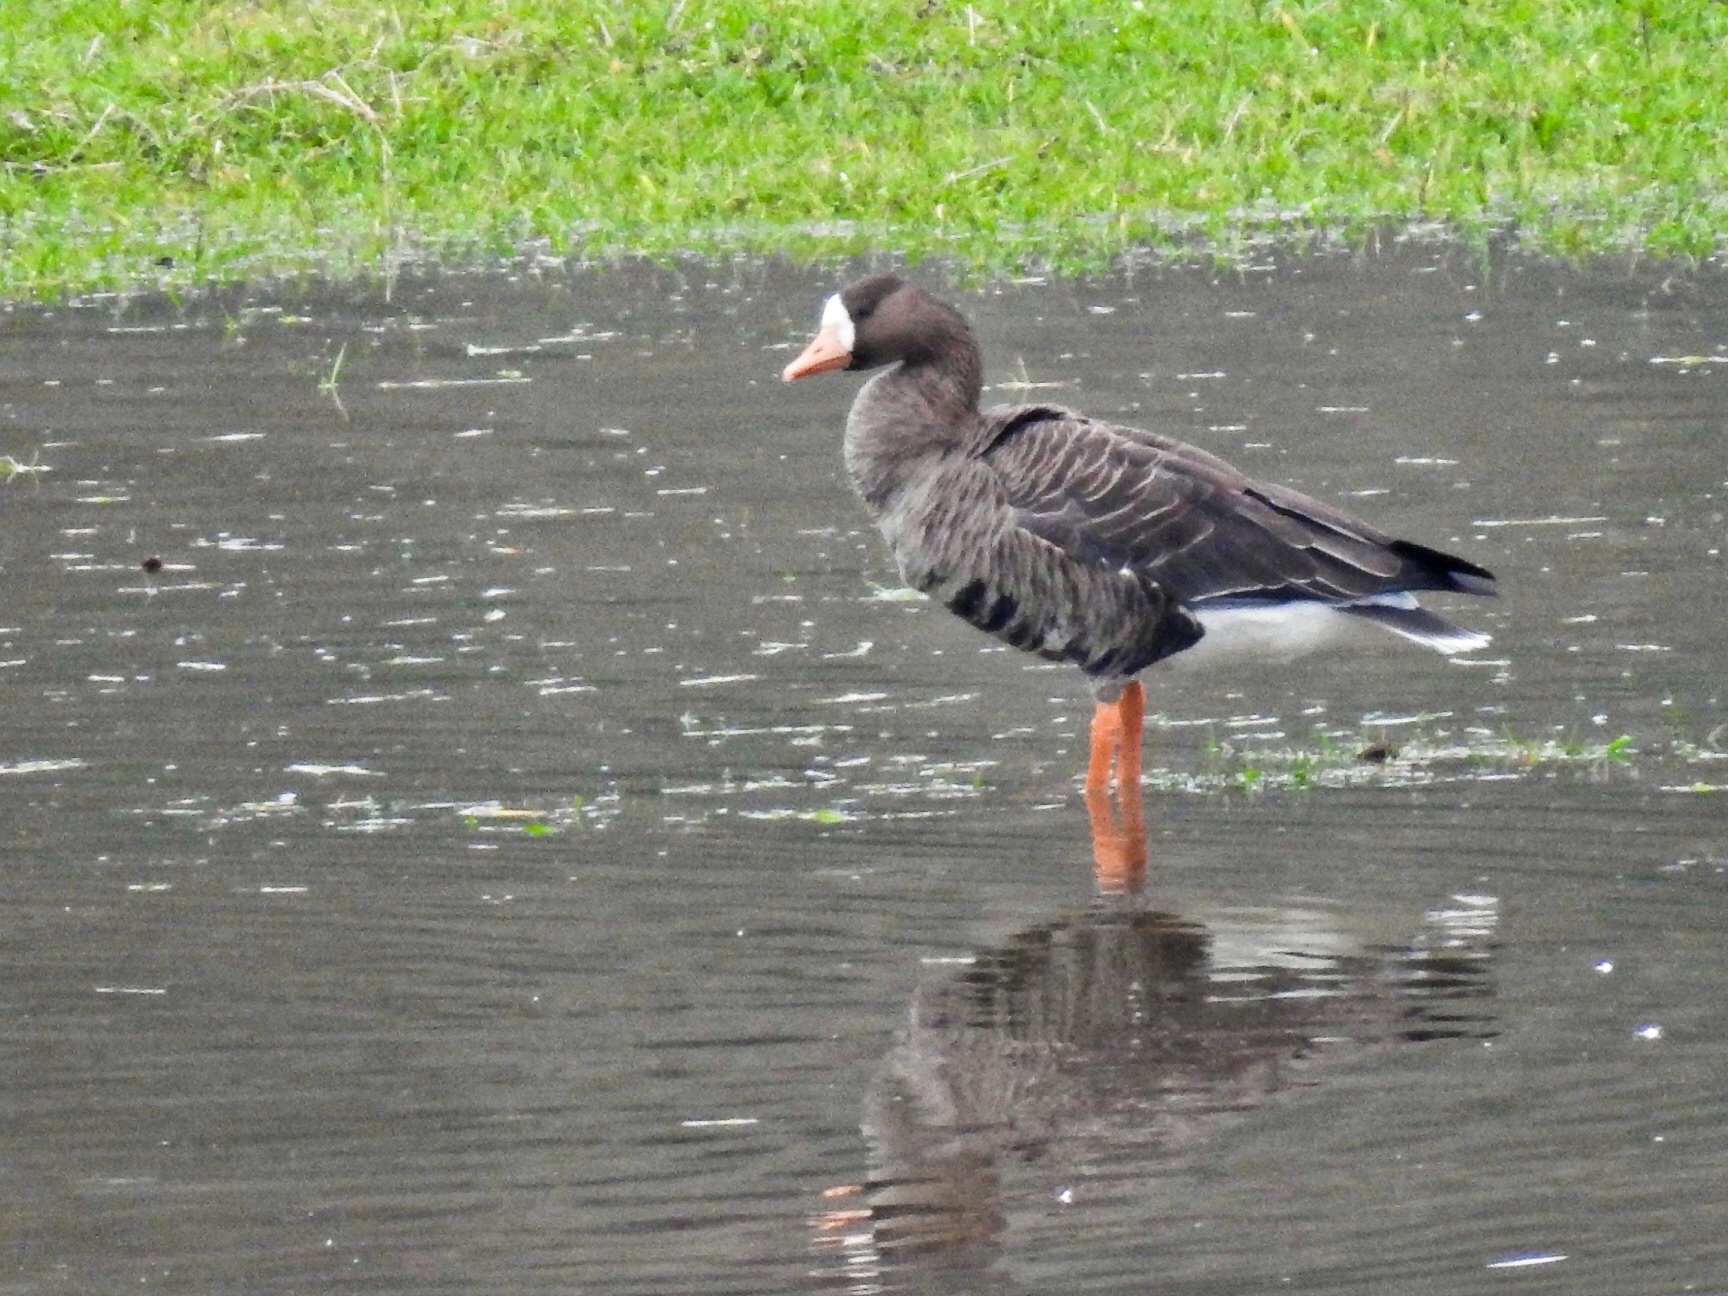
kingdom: Animalia
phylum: Chordata
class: Aves
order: Anseriformes
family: Anatidae
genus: Anser
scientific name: Anser albifrons
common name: Greater white-fronted goose
